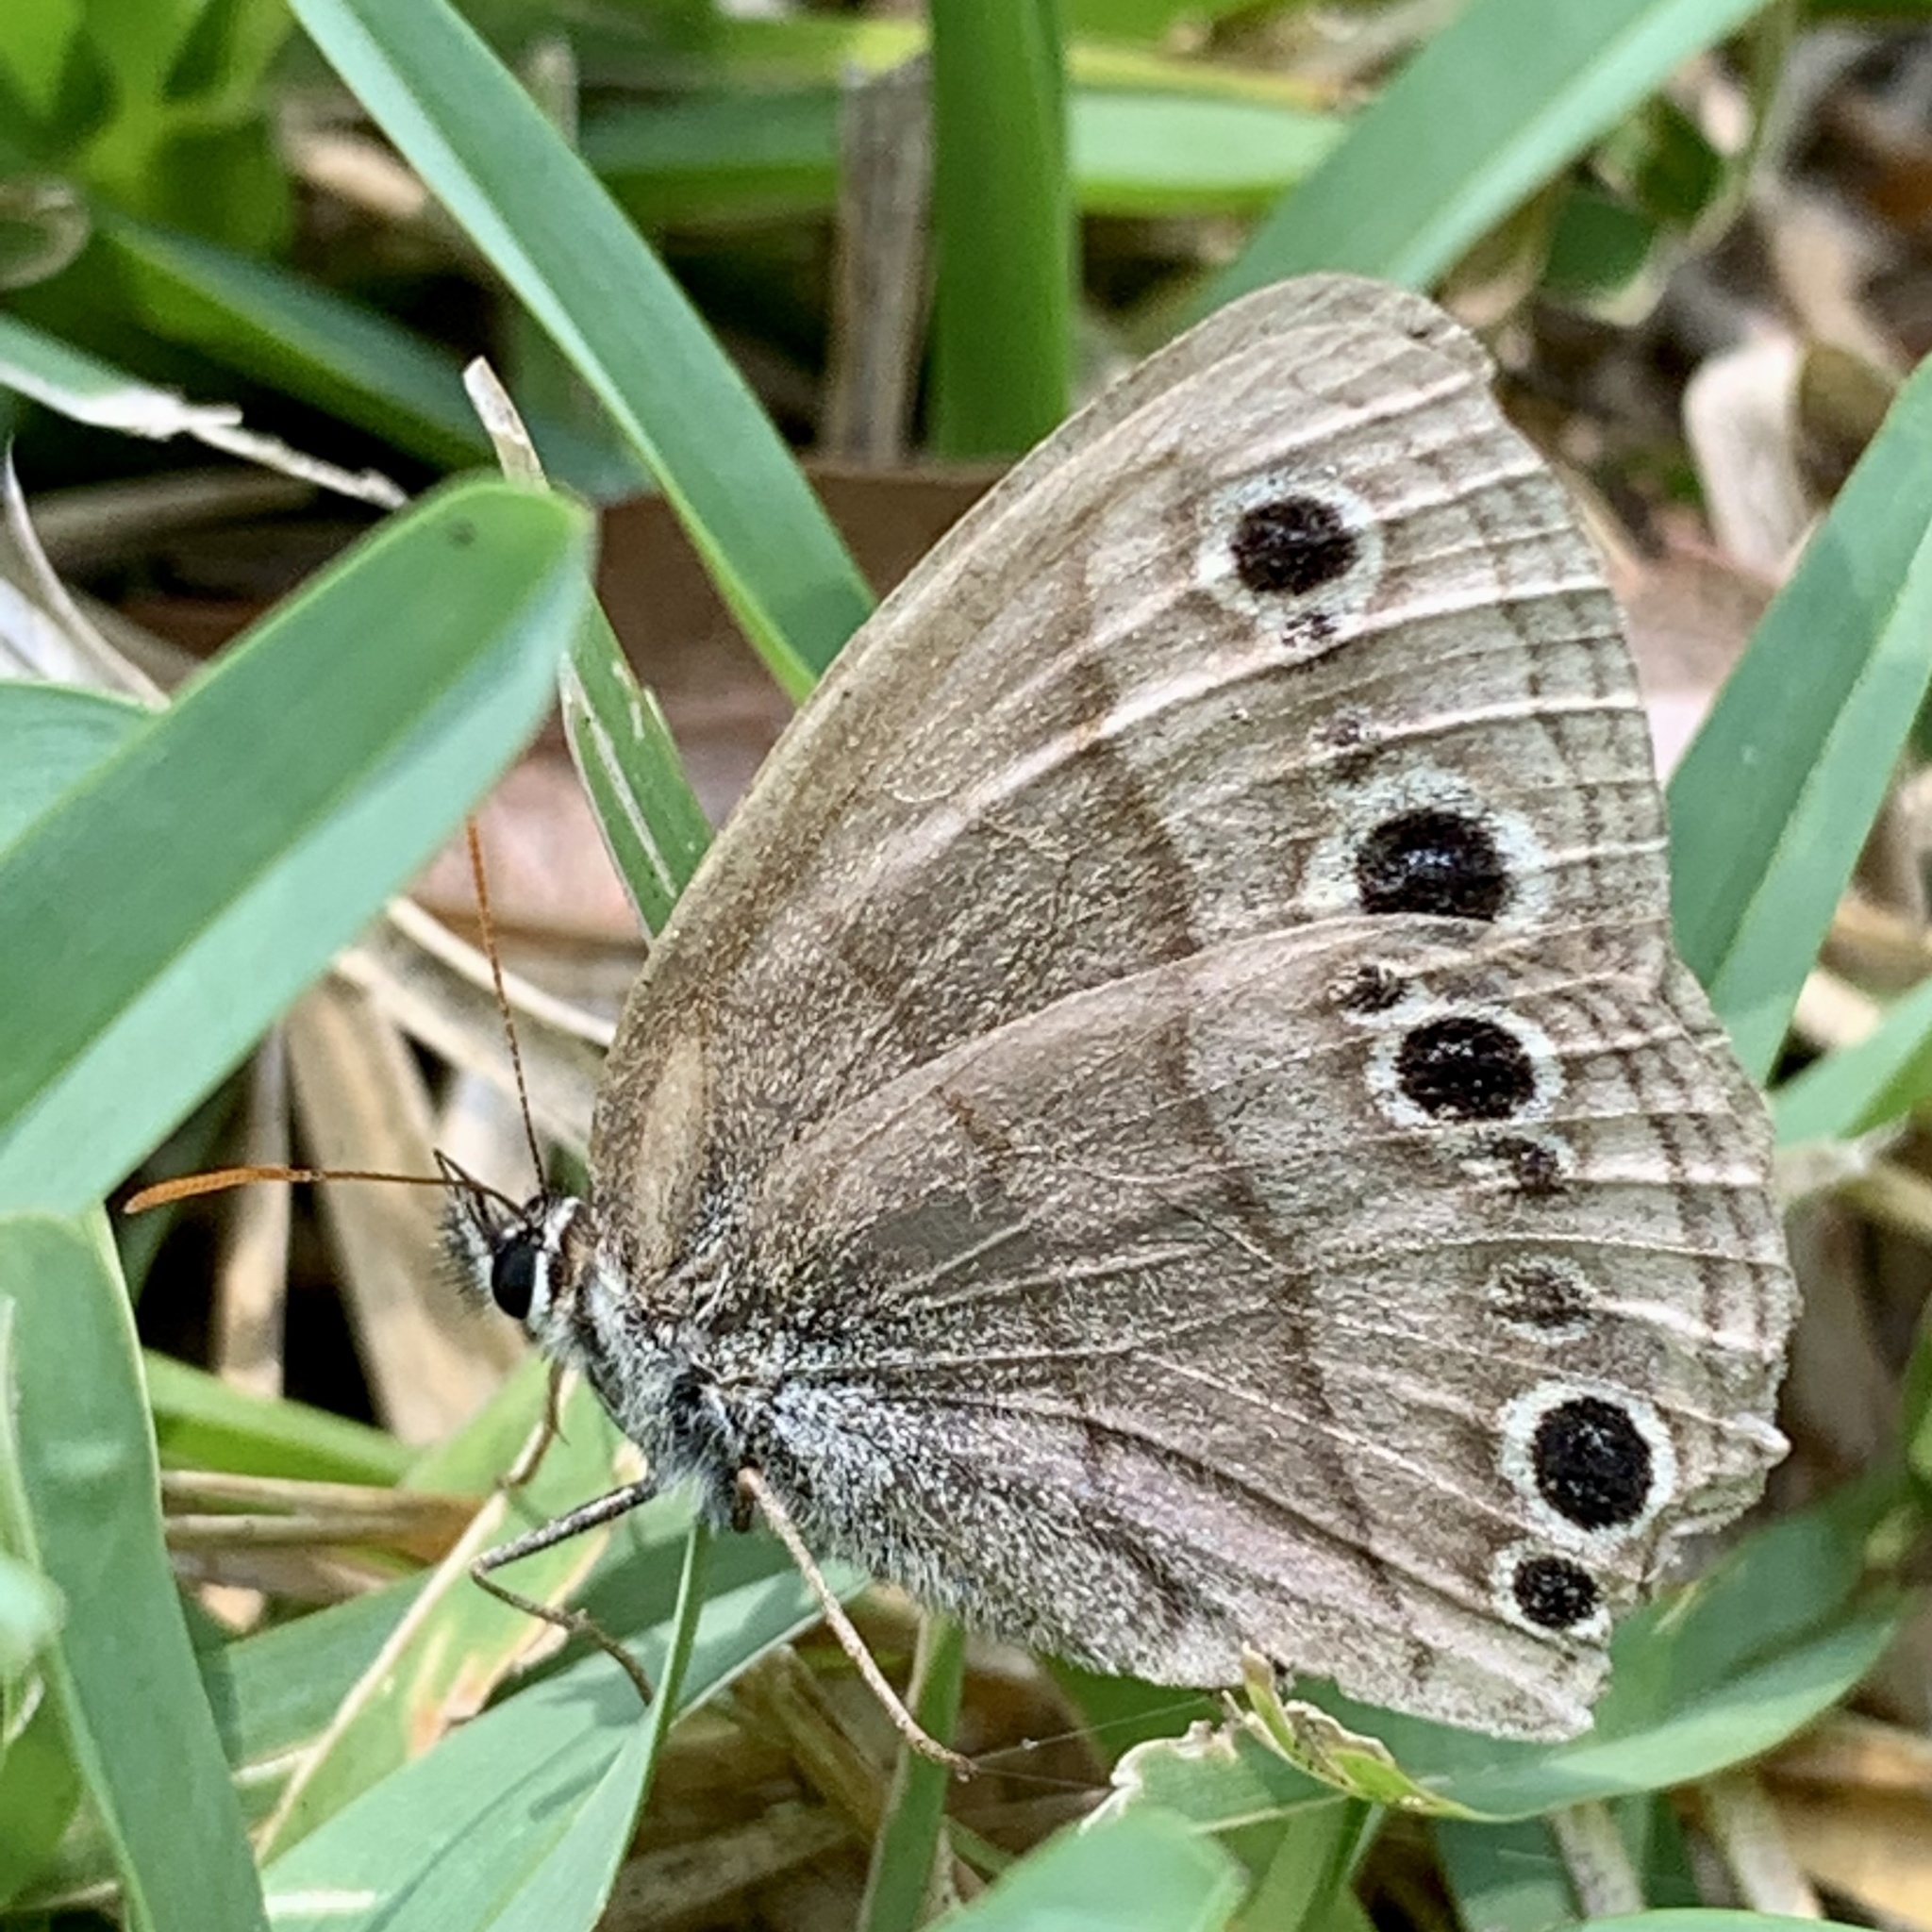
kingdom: Animalia
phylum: Arthropoda
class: Insecta
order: Lepidoptera
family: Nymphalidae
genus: Euptychia
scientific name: Euptychia cymela
